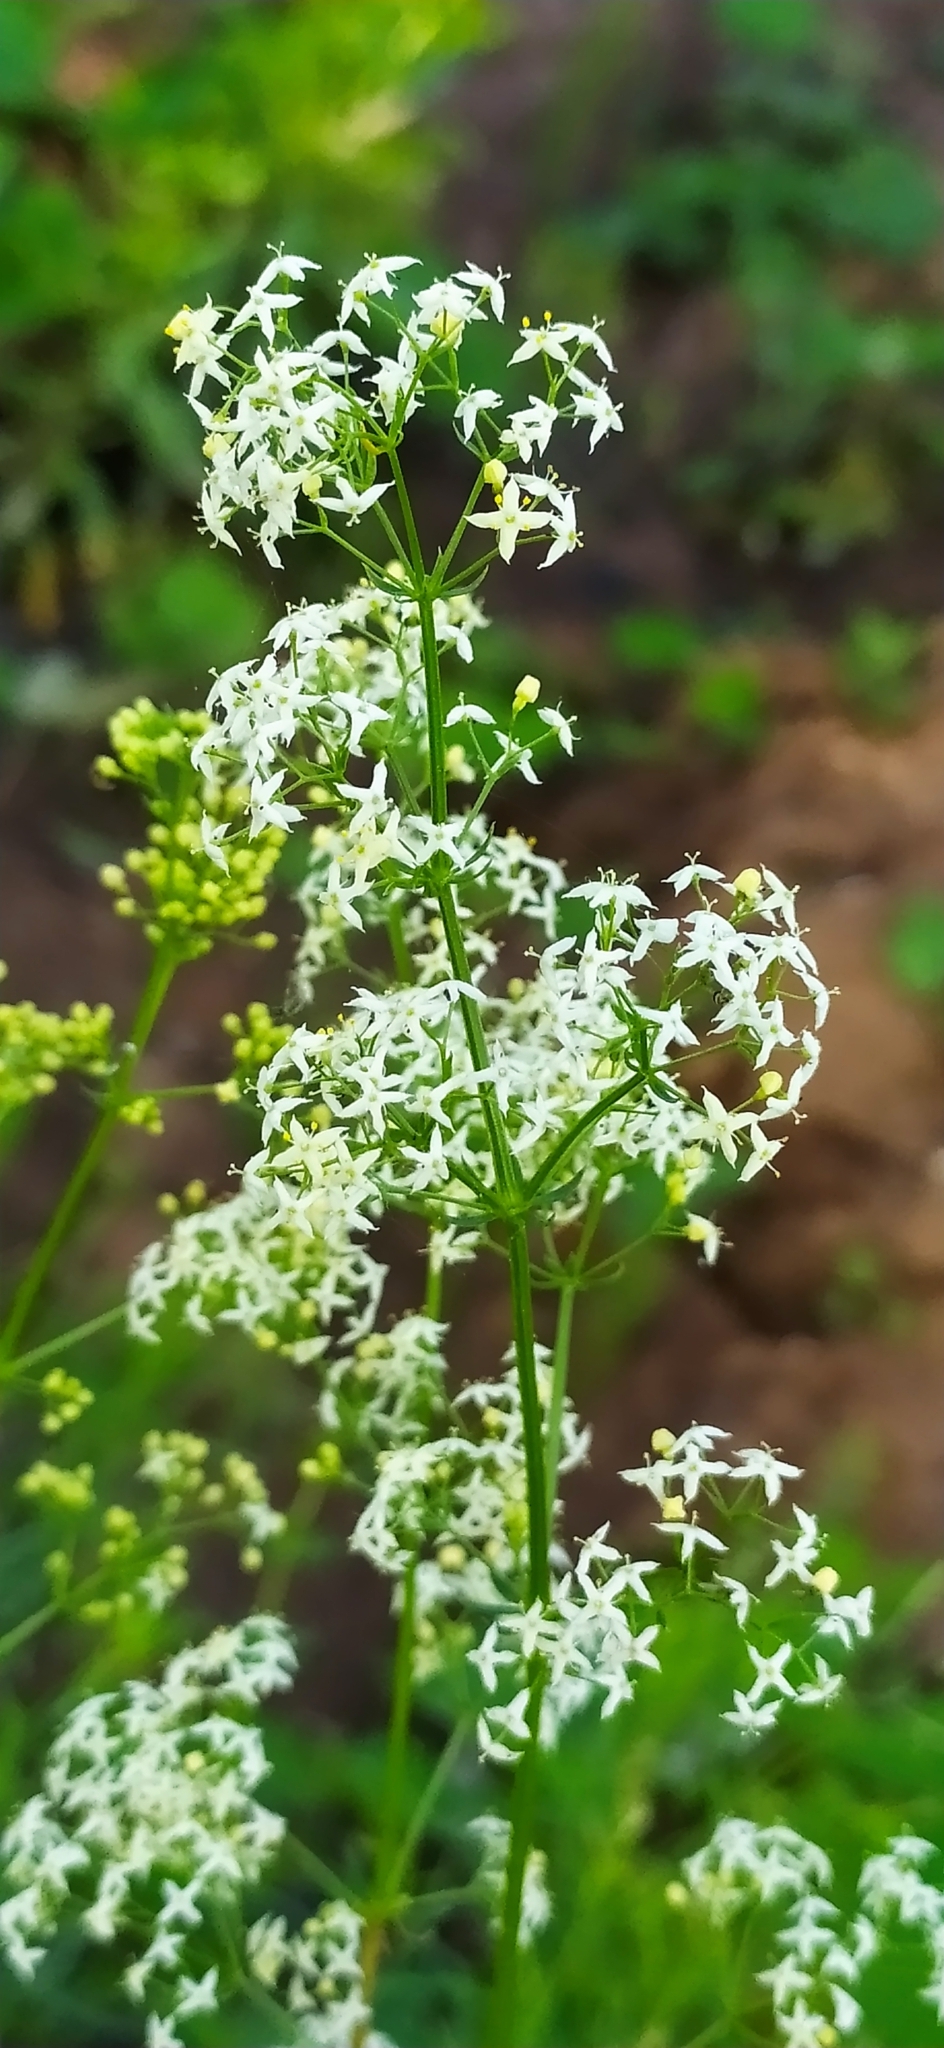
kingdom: Plantae
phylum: Tracheophyta
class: Magnoliopsida
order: Gentianales
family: Rubiaceae
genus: Galium
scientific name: Galium mollugo
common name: Hedge bedstraw
